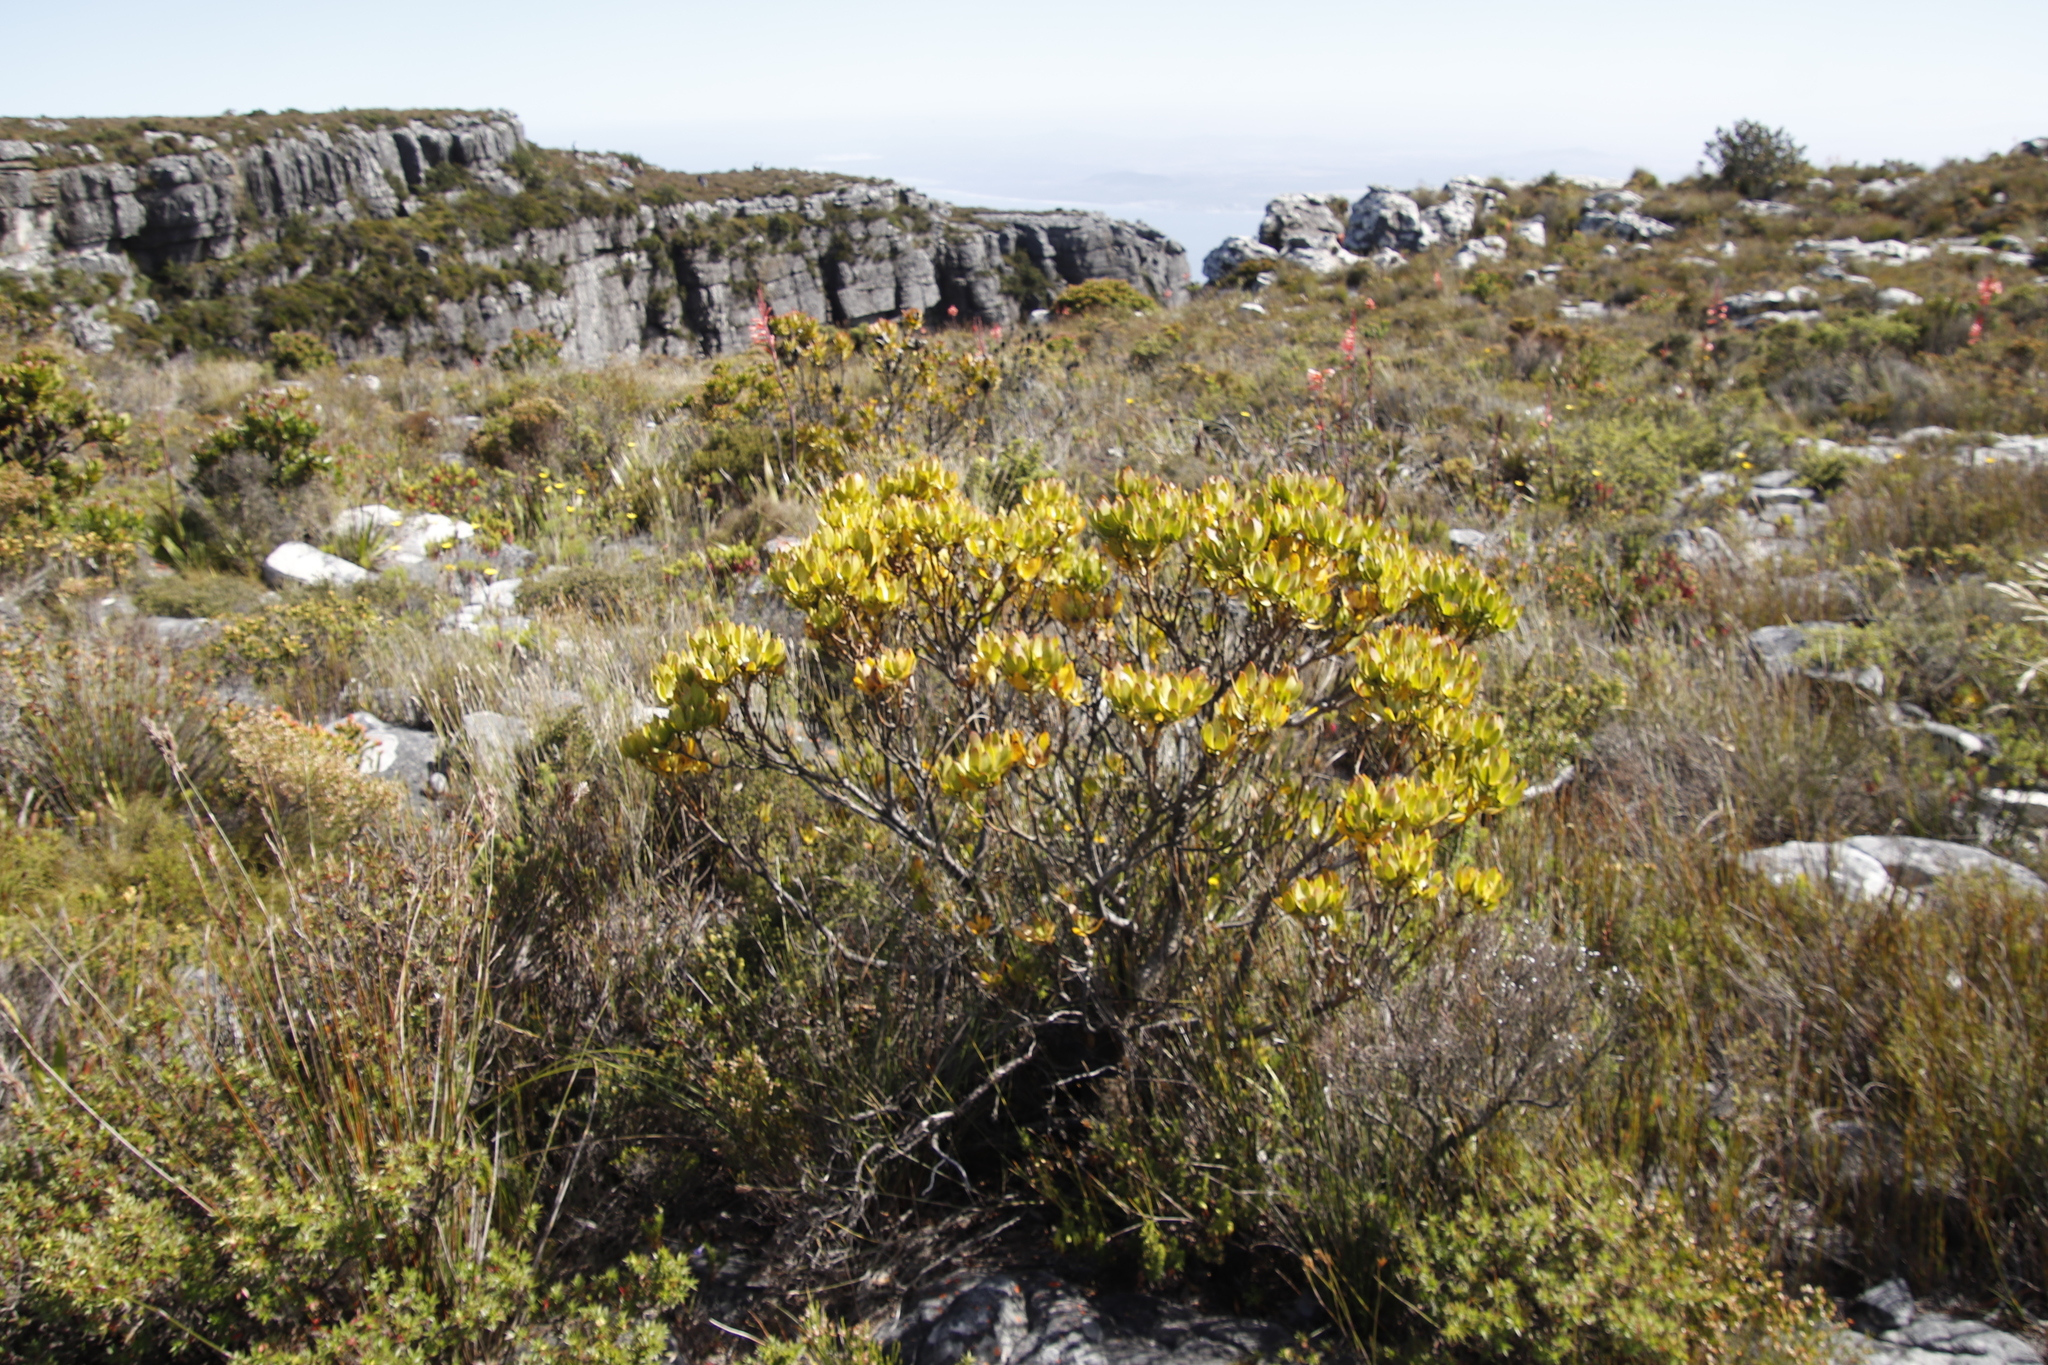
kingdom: Plantae
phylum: Tracheophyta
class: Magnoliopsida
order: Proteales
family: Proteaceae
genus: Leucadendron
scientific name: Leucadendron strobilinum
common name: Mountain rose
